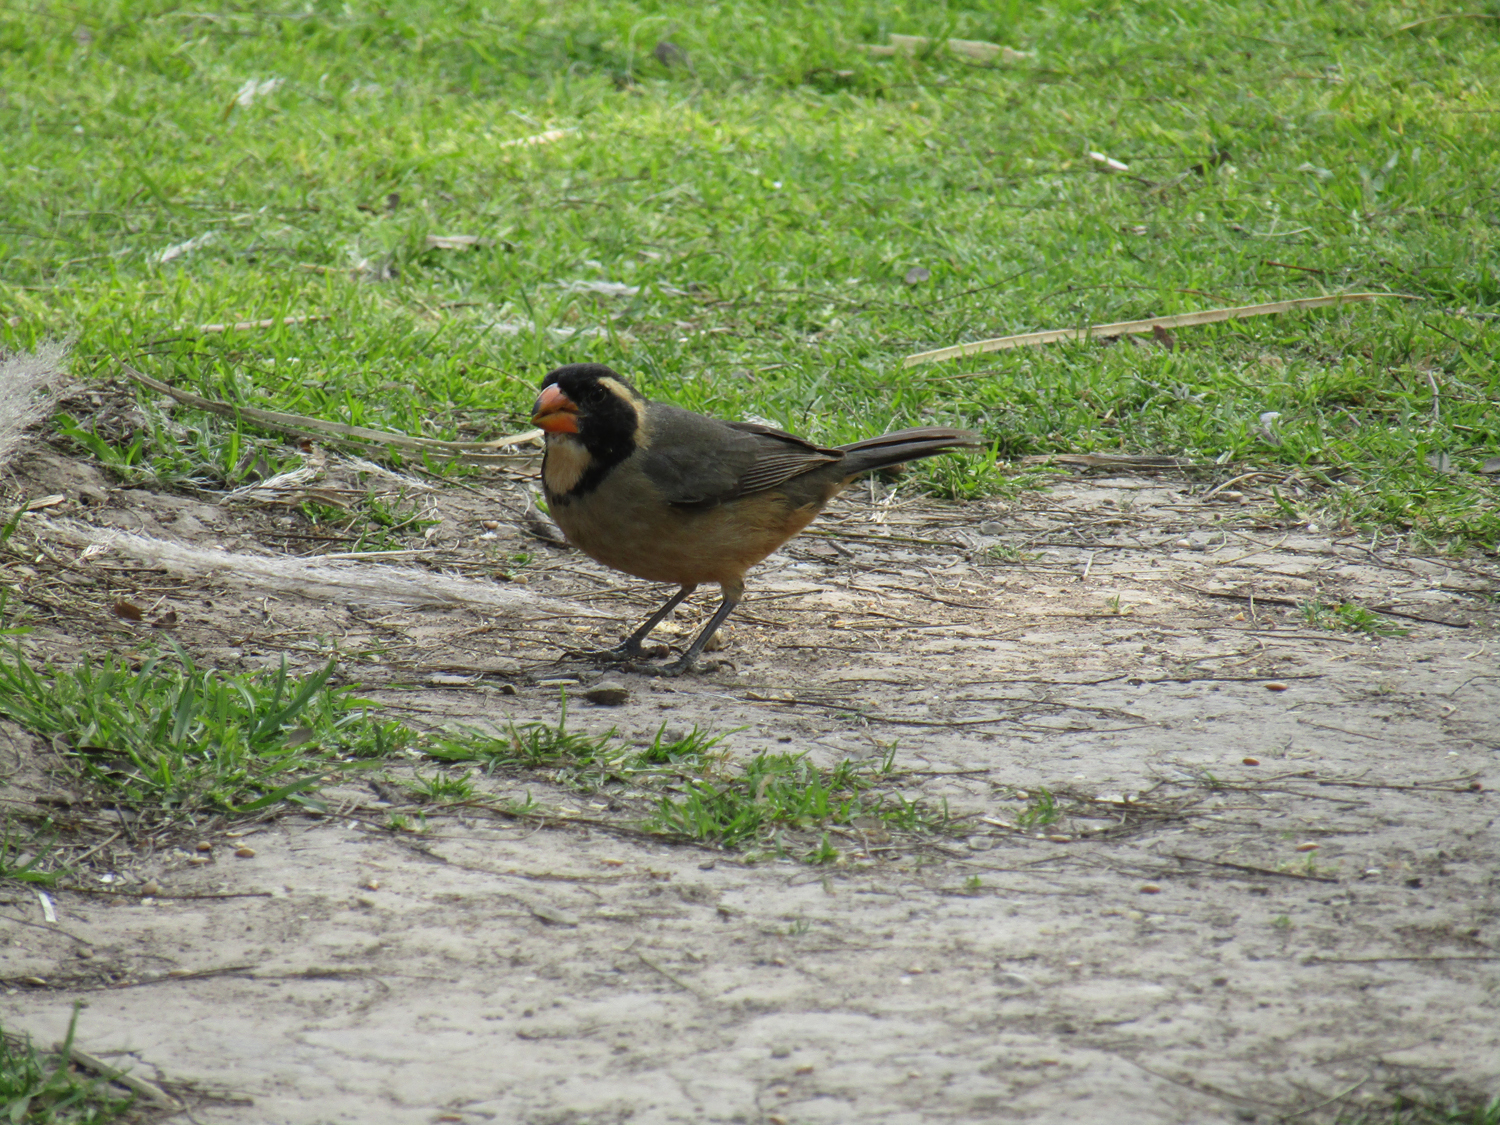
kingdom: Animalia
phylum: Chordata
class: Aves
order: Passeriformes
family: Thraupidae
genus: Saltator
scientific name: Saltator aurantiirostris
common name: Golden-billed saltator
